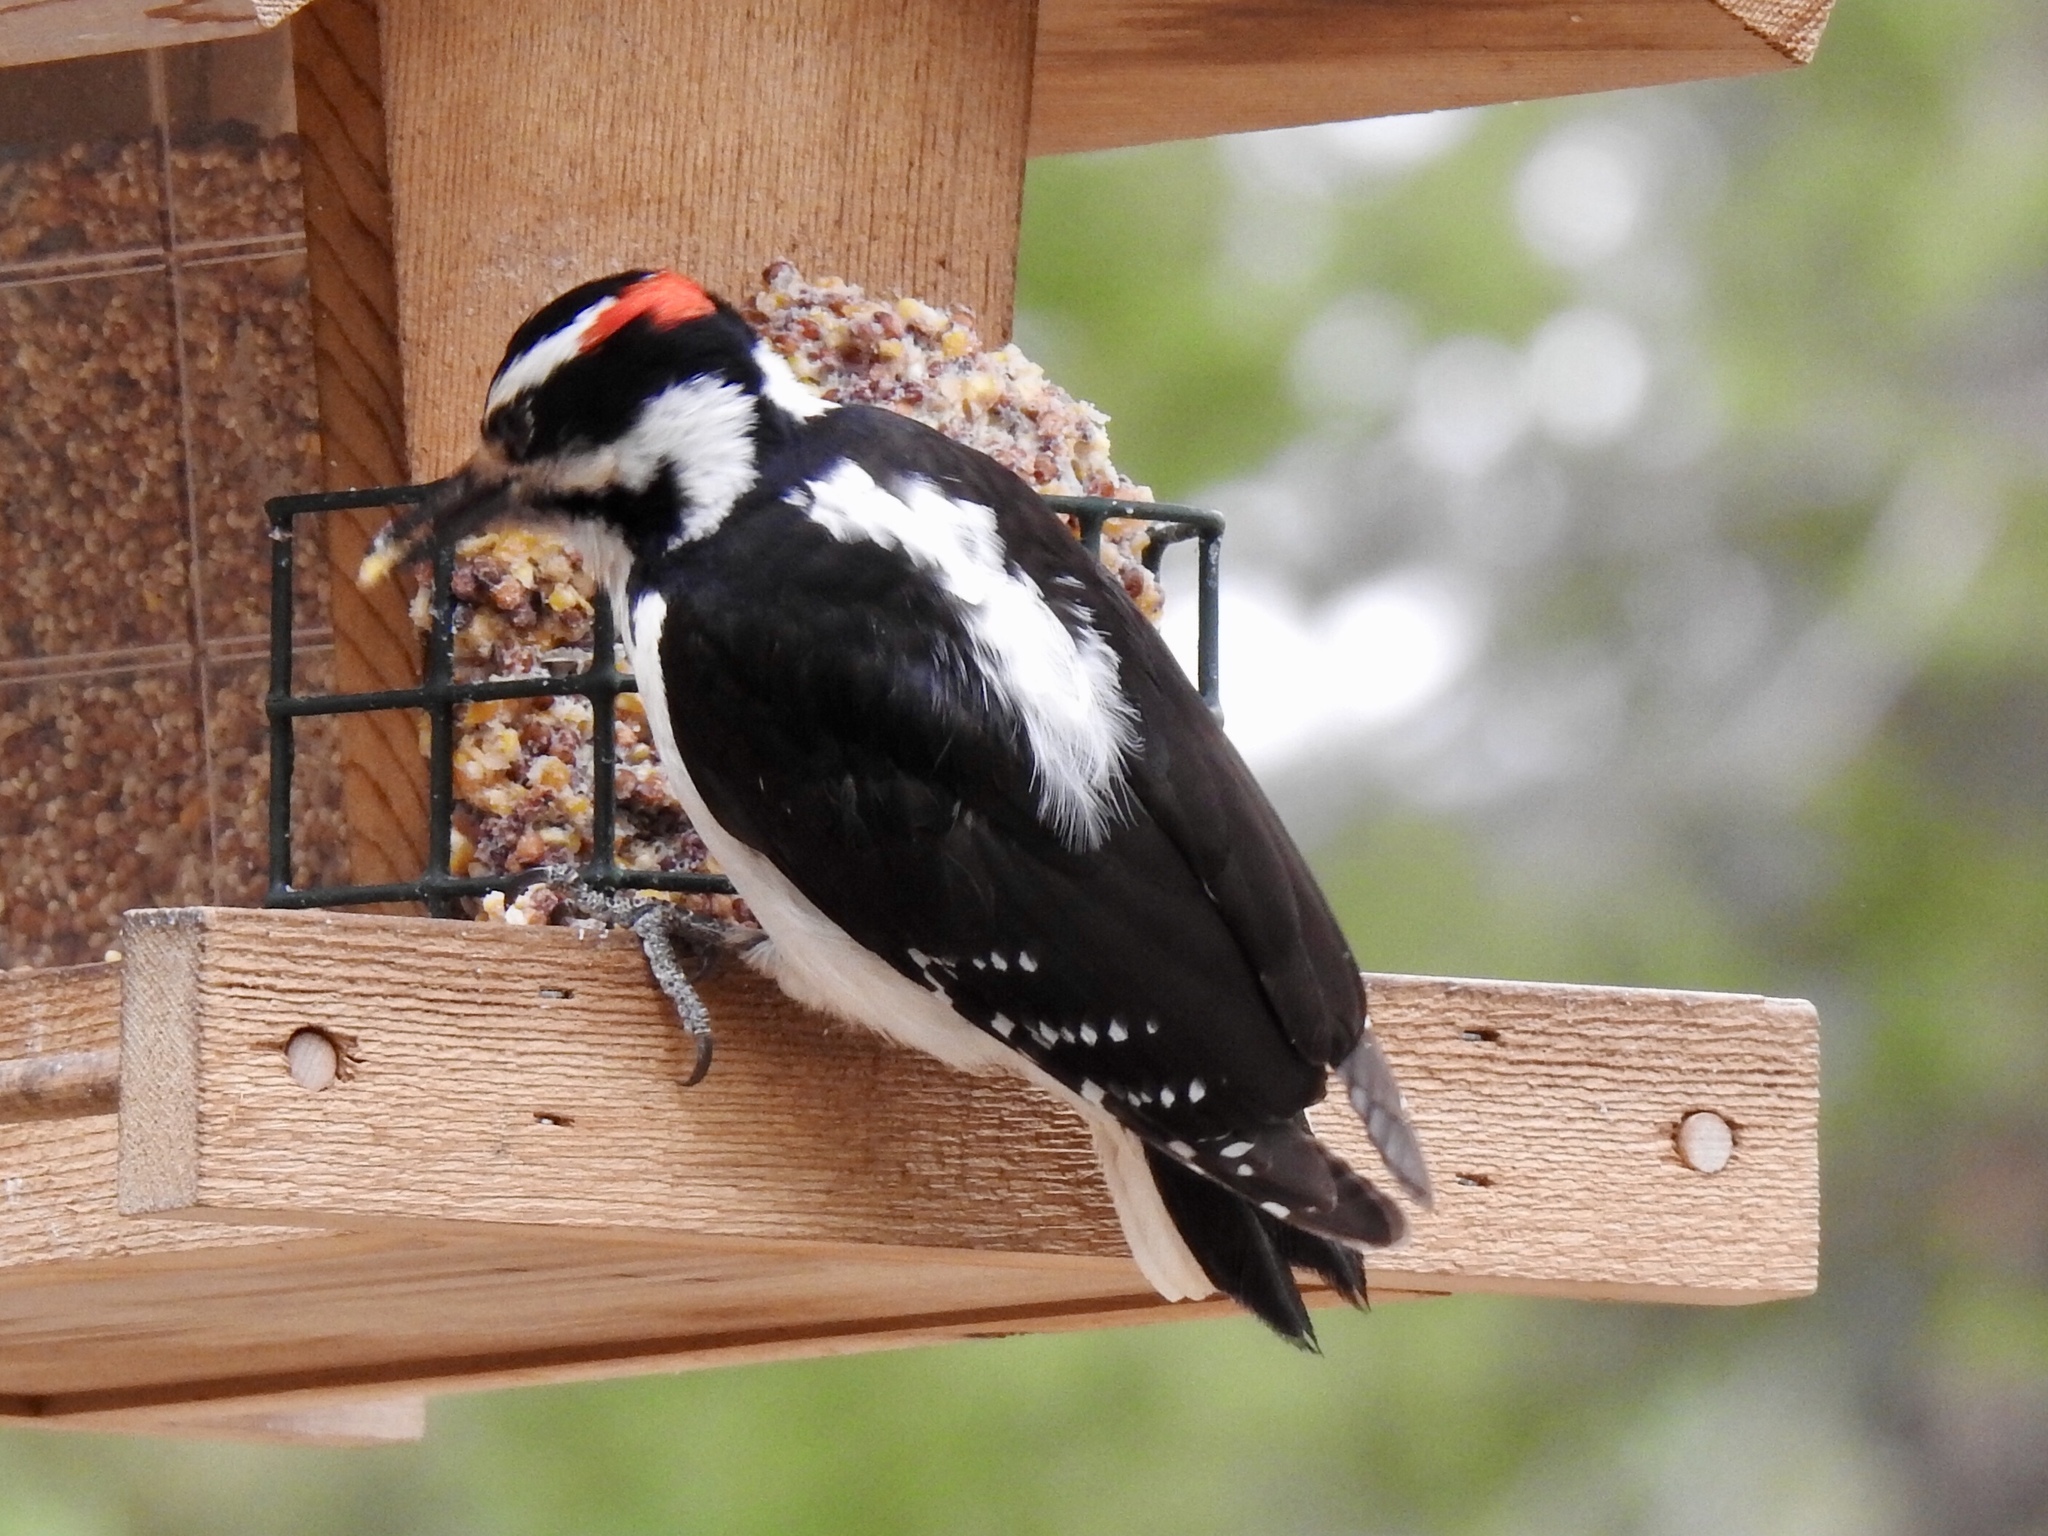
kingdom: Animalia
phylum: Chordata
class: Aves
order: Piciformes
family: Picidae
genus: Leuconotopicus
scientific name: Leuconotopicus villosus
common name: Hairy woodpecker
